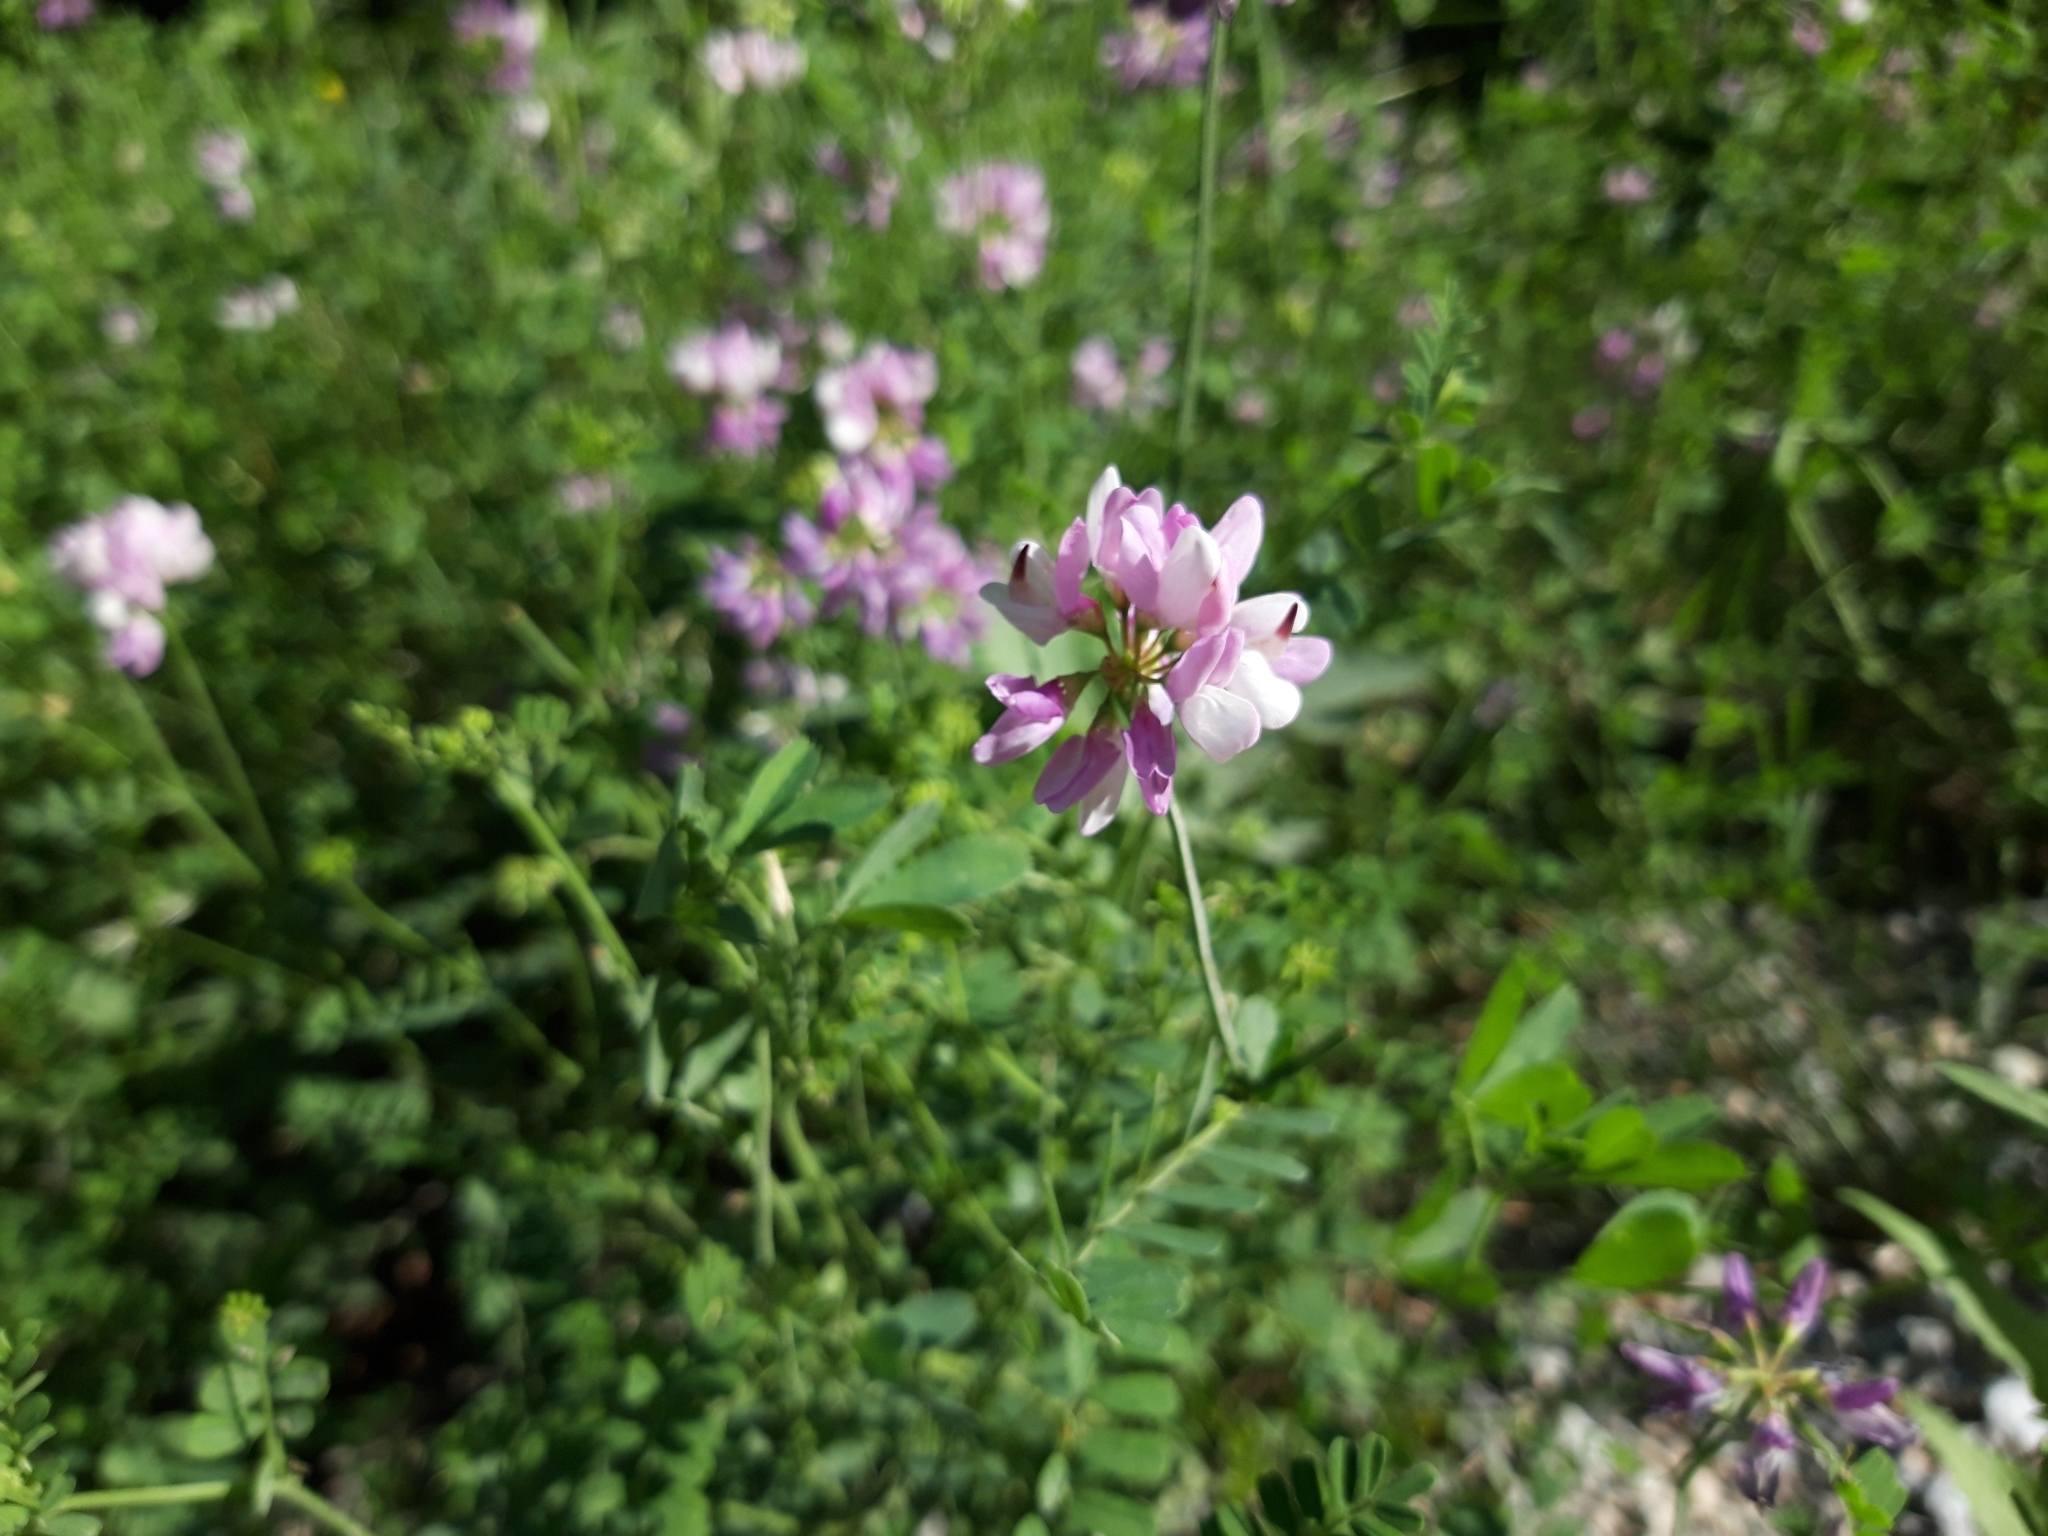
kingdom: Plantae
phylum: Tracheophyta
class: Magnoliopsida
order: Fabales
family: Fabaceae
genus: Coronilla
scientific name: Coronilla varia
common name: Crownvetch
